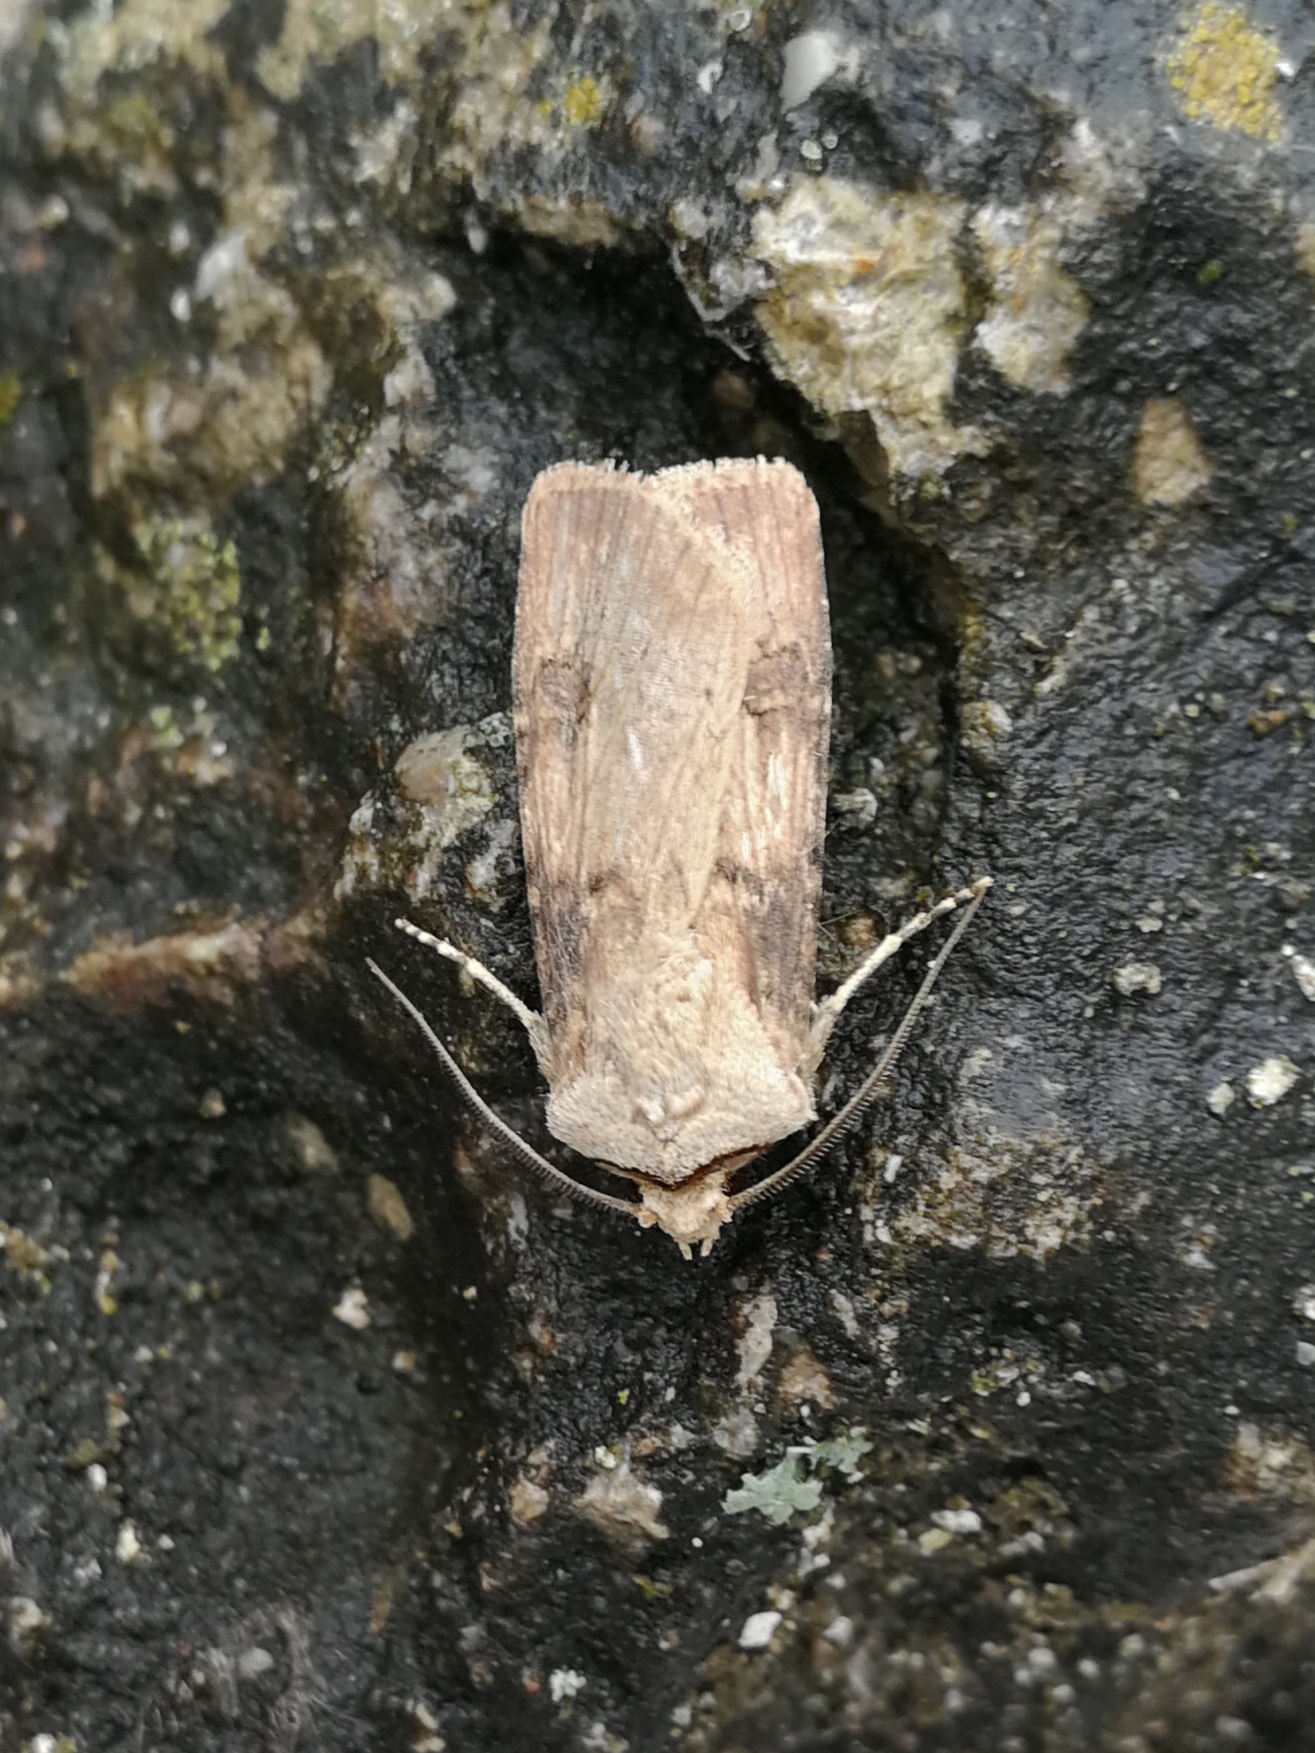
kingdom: Animalia
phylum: Arthropoda
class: Insecta
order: Lepidoptera
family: Noctuidae
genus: Agrotis
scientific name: Agrotis puta
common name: Shuttle-shaped dart
